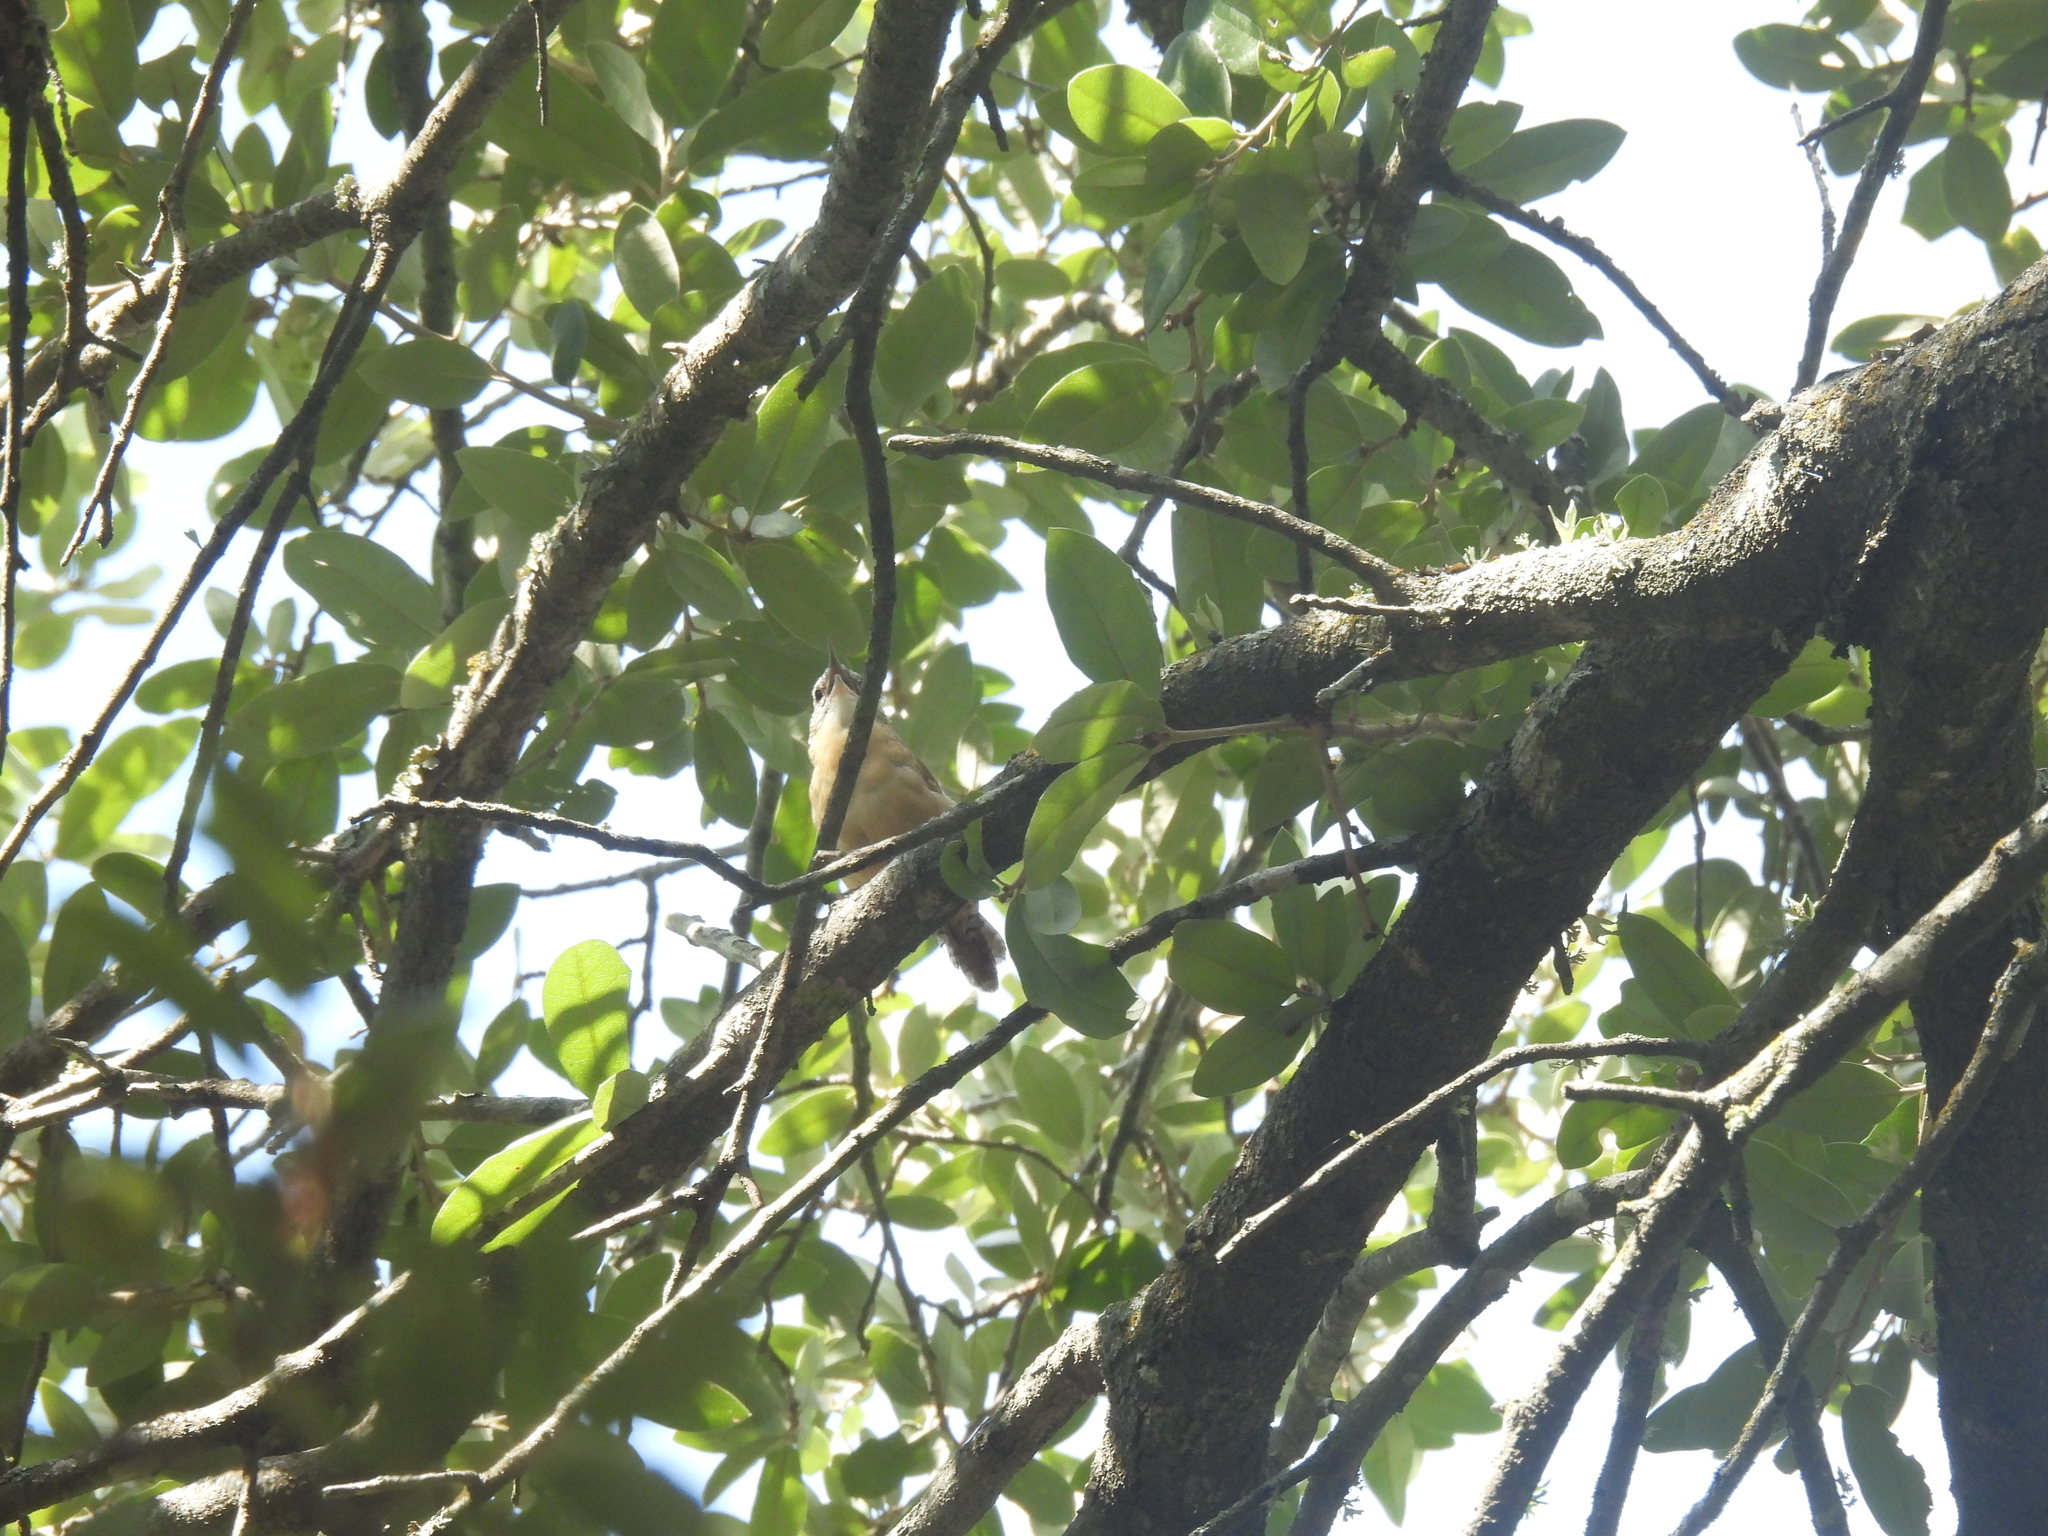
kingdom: Animalia
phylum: Chordata
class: Aves
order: Passeriformes
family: Troglodytidae
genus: Thryothorus
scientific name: Thryothorus ludovicianus
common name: Carolina wren
